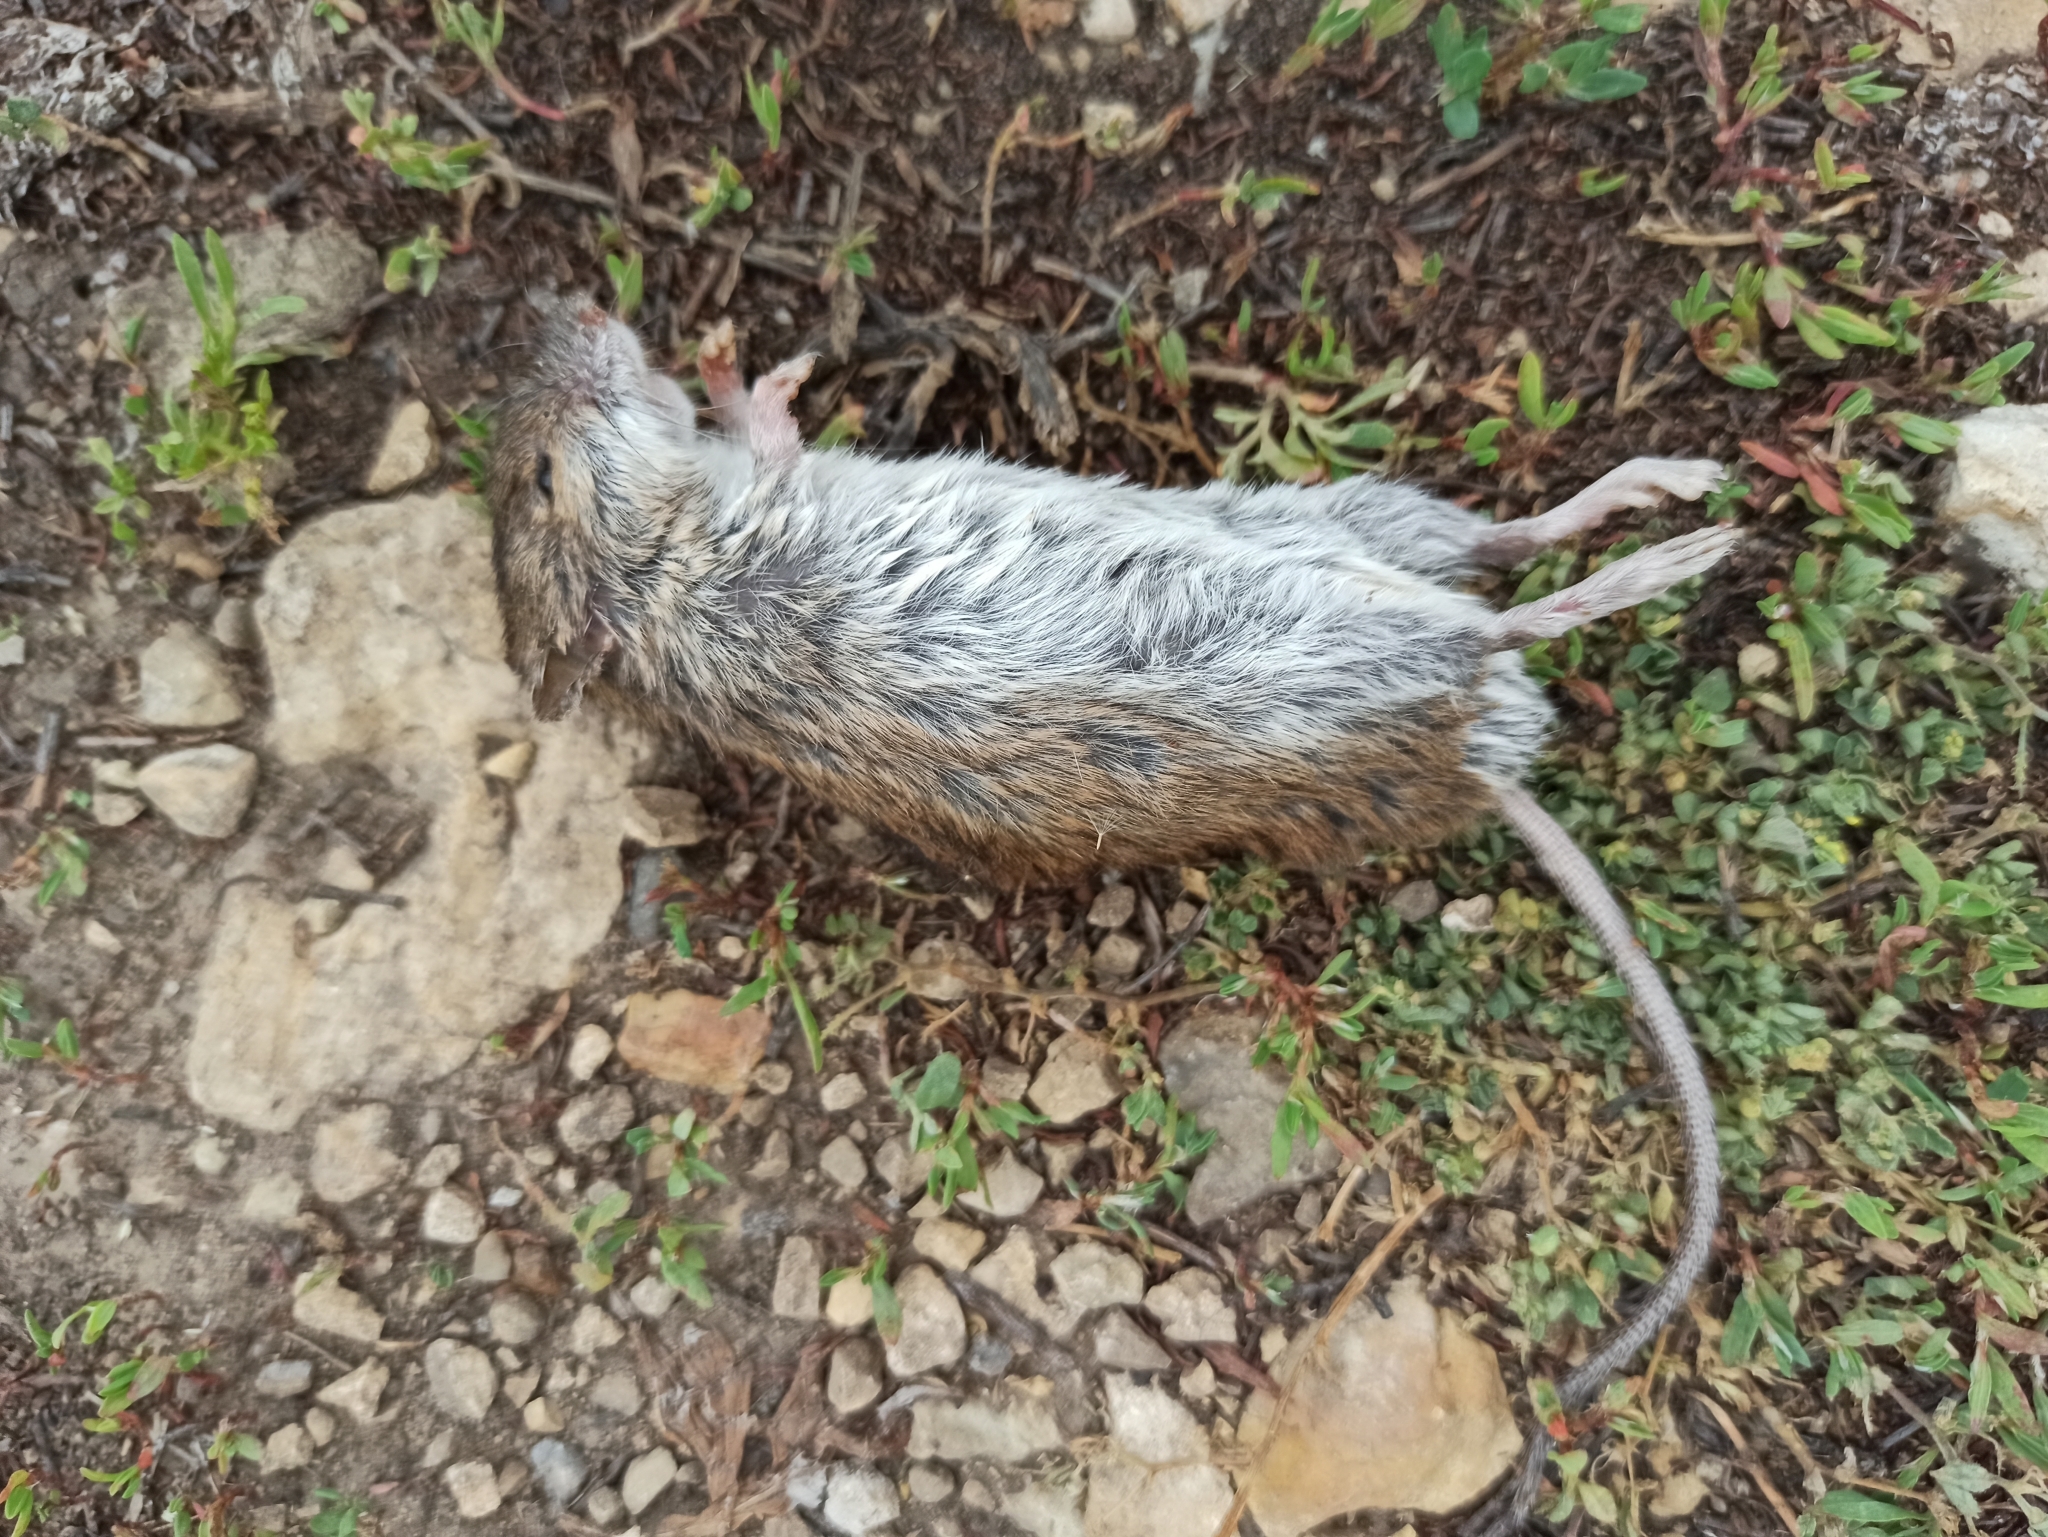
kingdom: Animalia
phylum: Chordata
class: Mammalia
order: Rodentia
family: Muridae
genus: Apodemus
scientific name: Apodemus agrarius
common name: Striped field mouse
